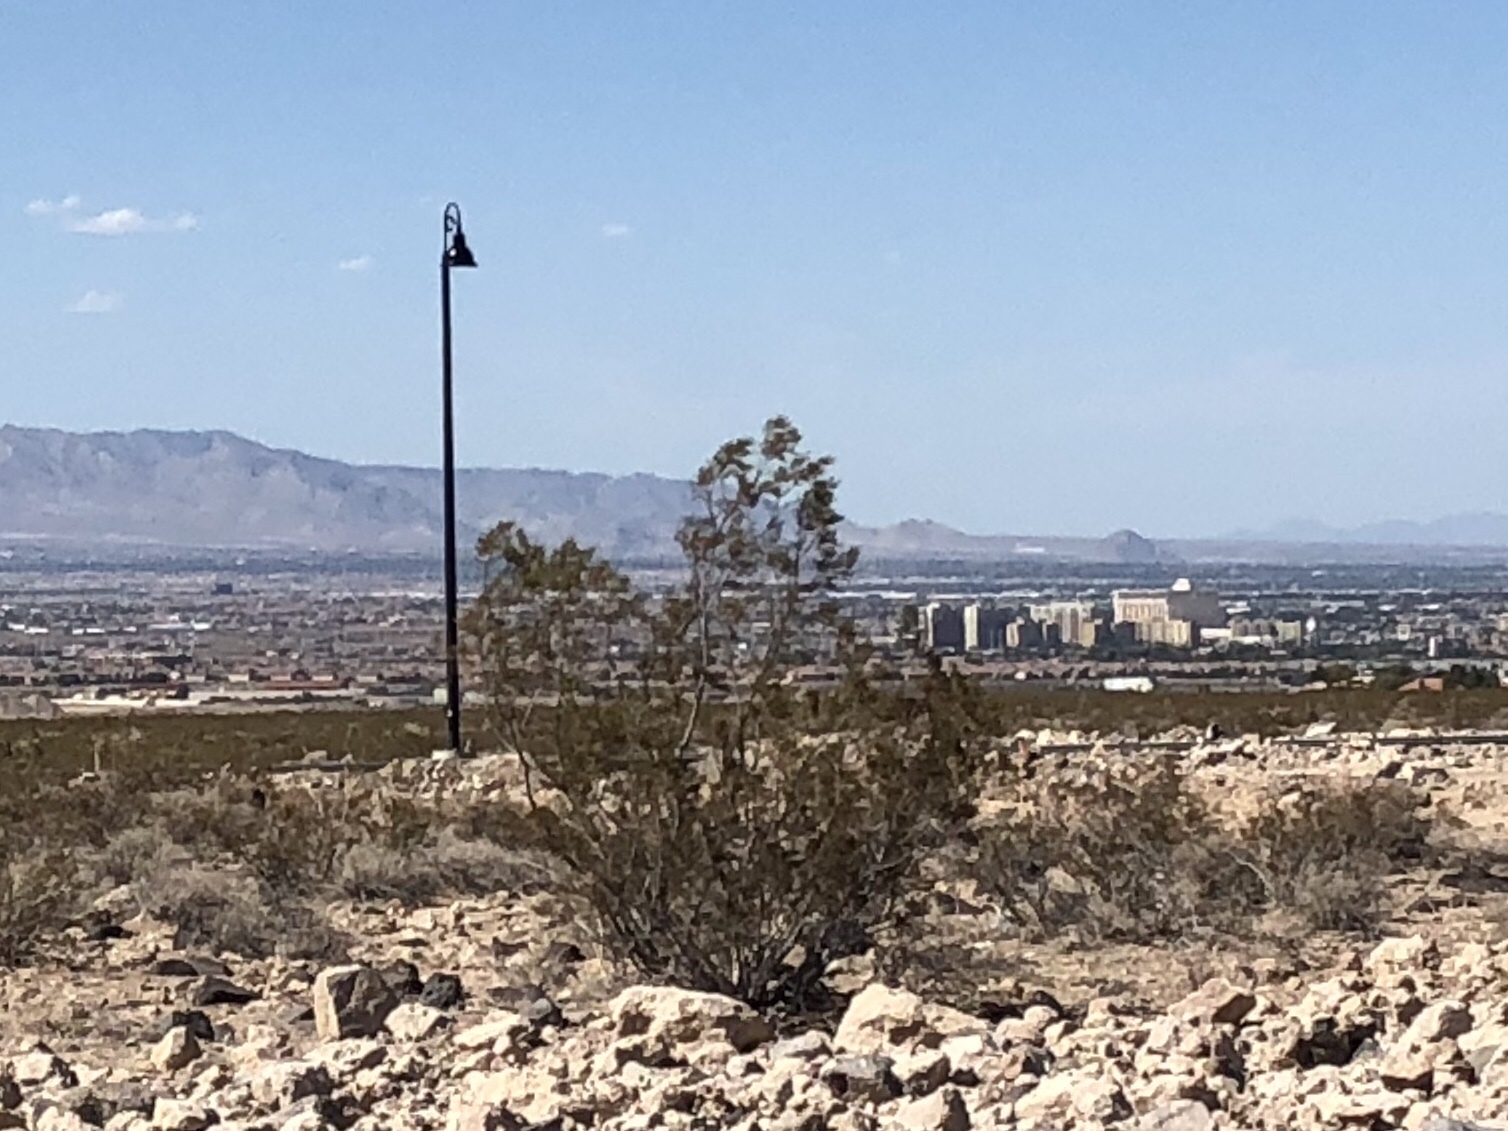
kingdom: Plantae
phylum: Tracheophyta
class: Magnoliopsida
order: Zygophyllales
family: Zygophyllaceae
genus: Larrea
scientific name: Larrea tridentata
